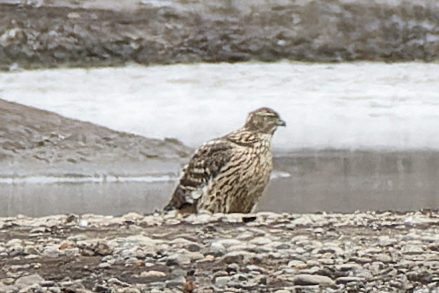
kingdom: Animalia
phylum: Chordata
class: Aves
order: Accipitriformes
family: Accipitridae
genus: Accipiter
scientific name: Accipiter gentilis
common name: Northern goshawk
